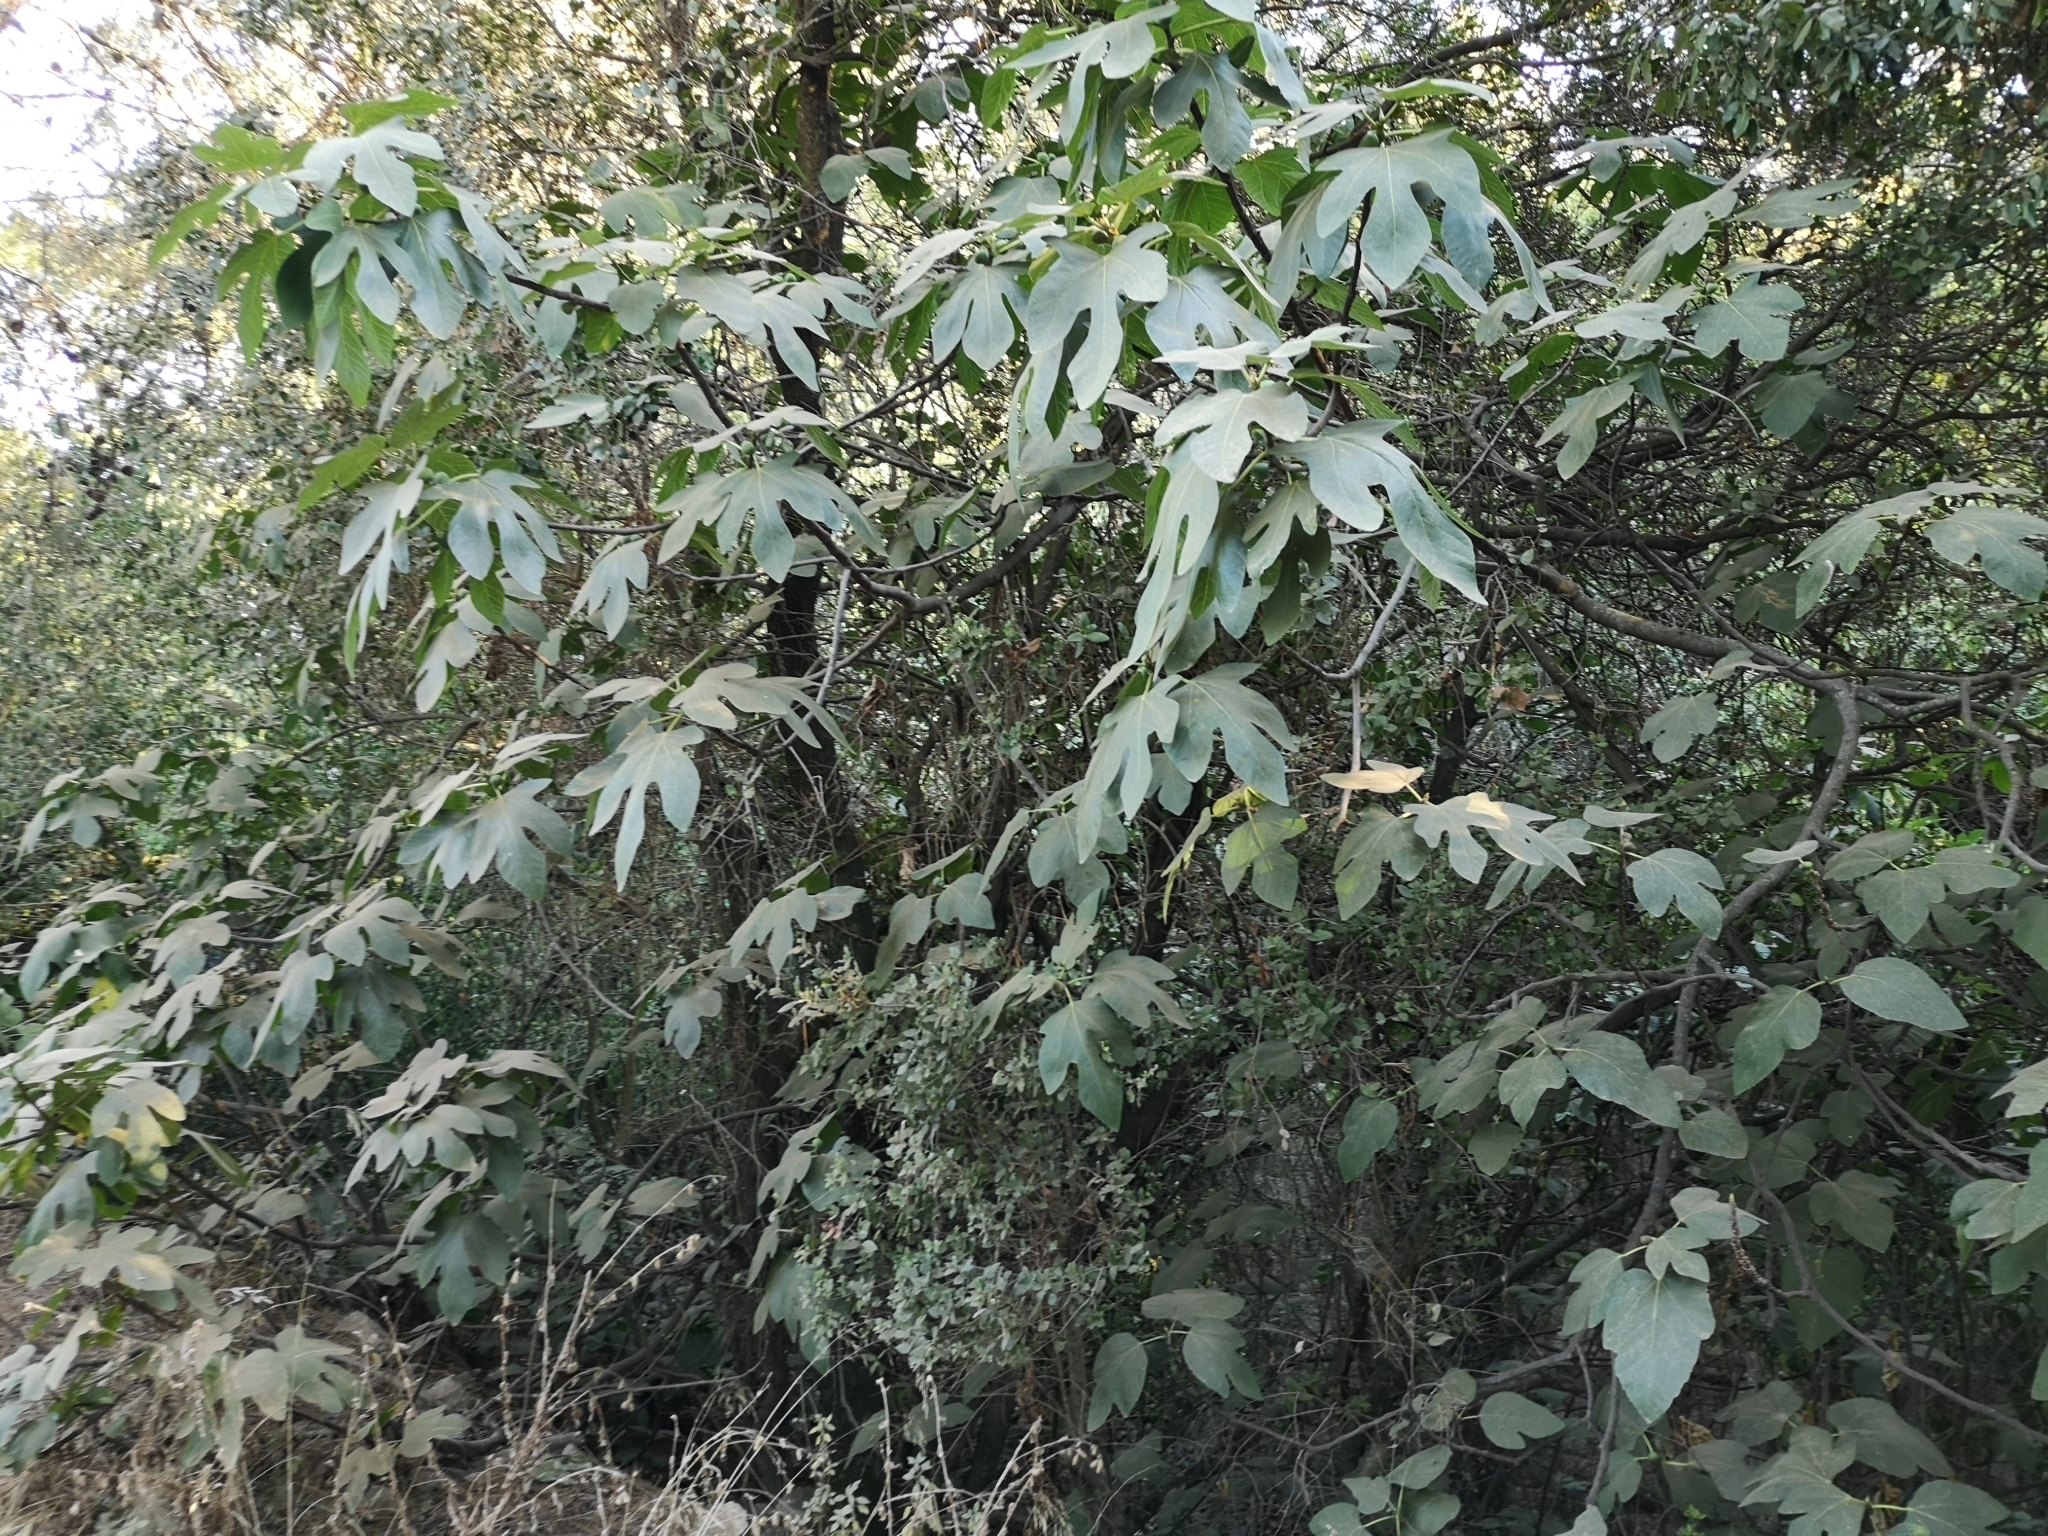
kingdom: Plantae
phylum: Tracheophyta
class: Magnoliopsida
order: Rosales
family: Moraceae
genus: Ficus
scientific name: Ficus carica
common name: Fig
